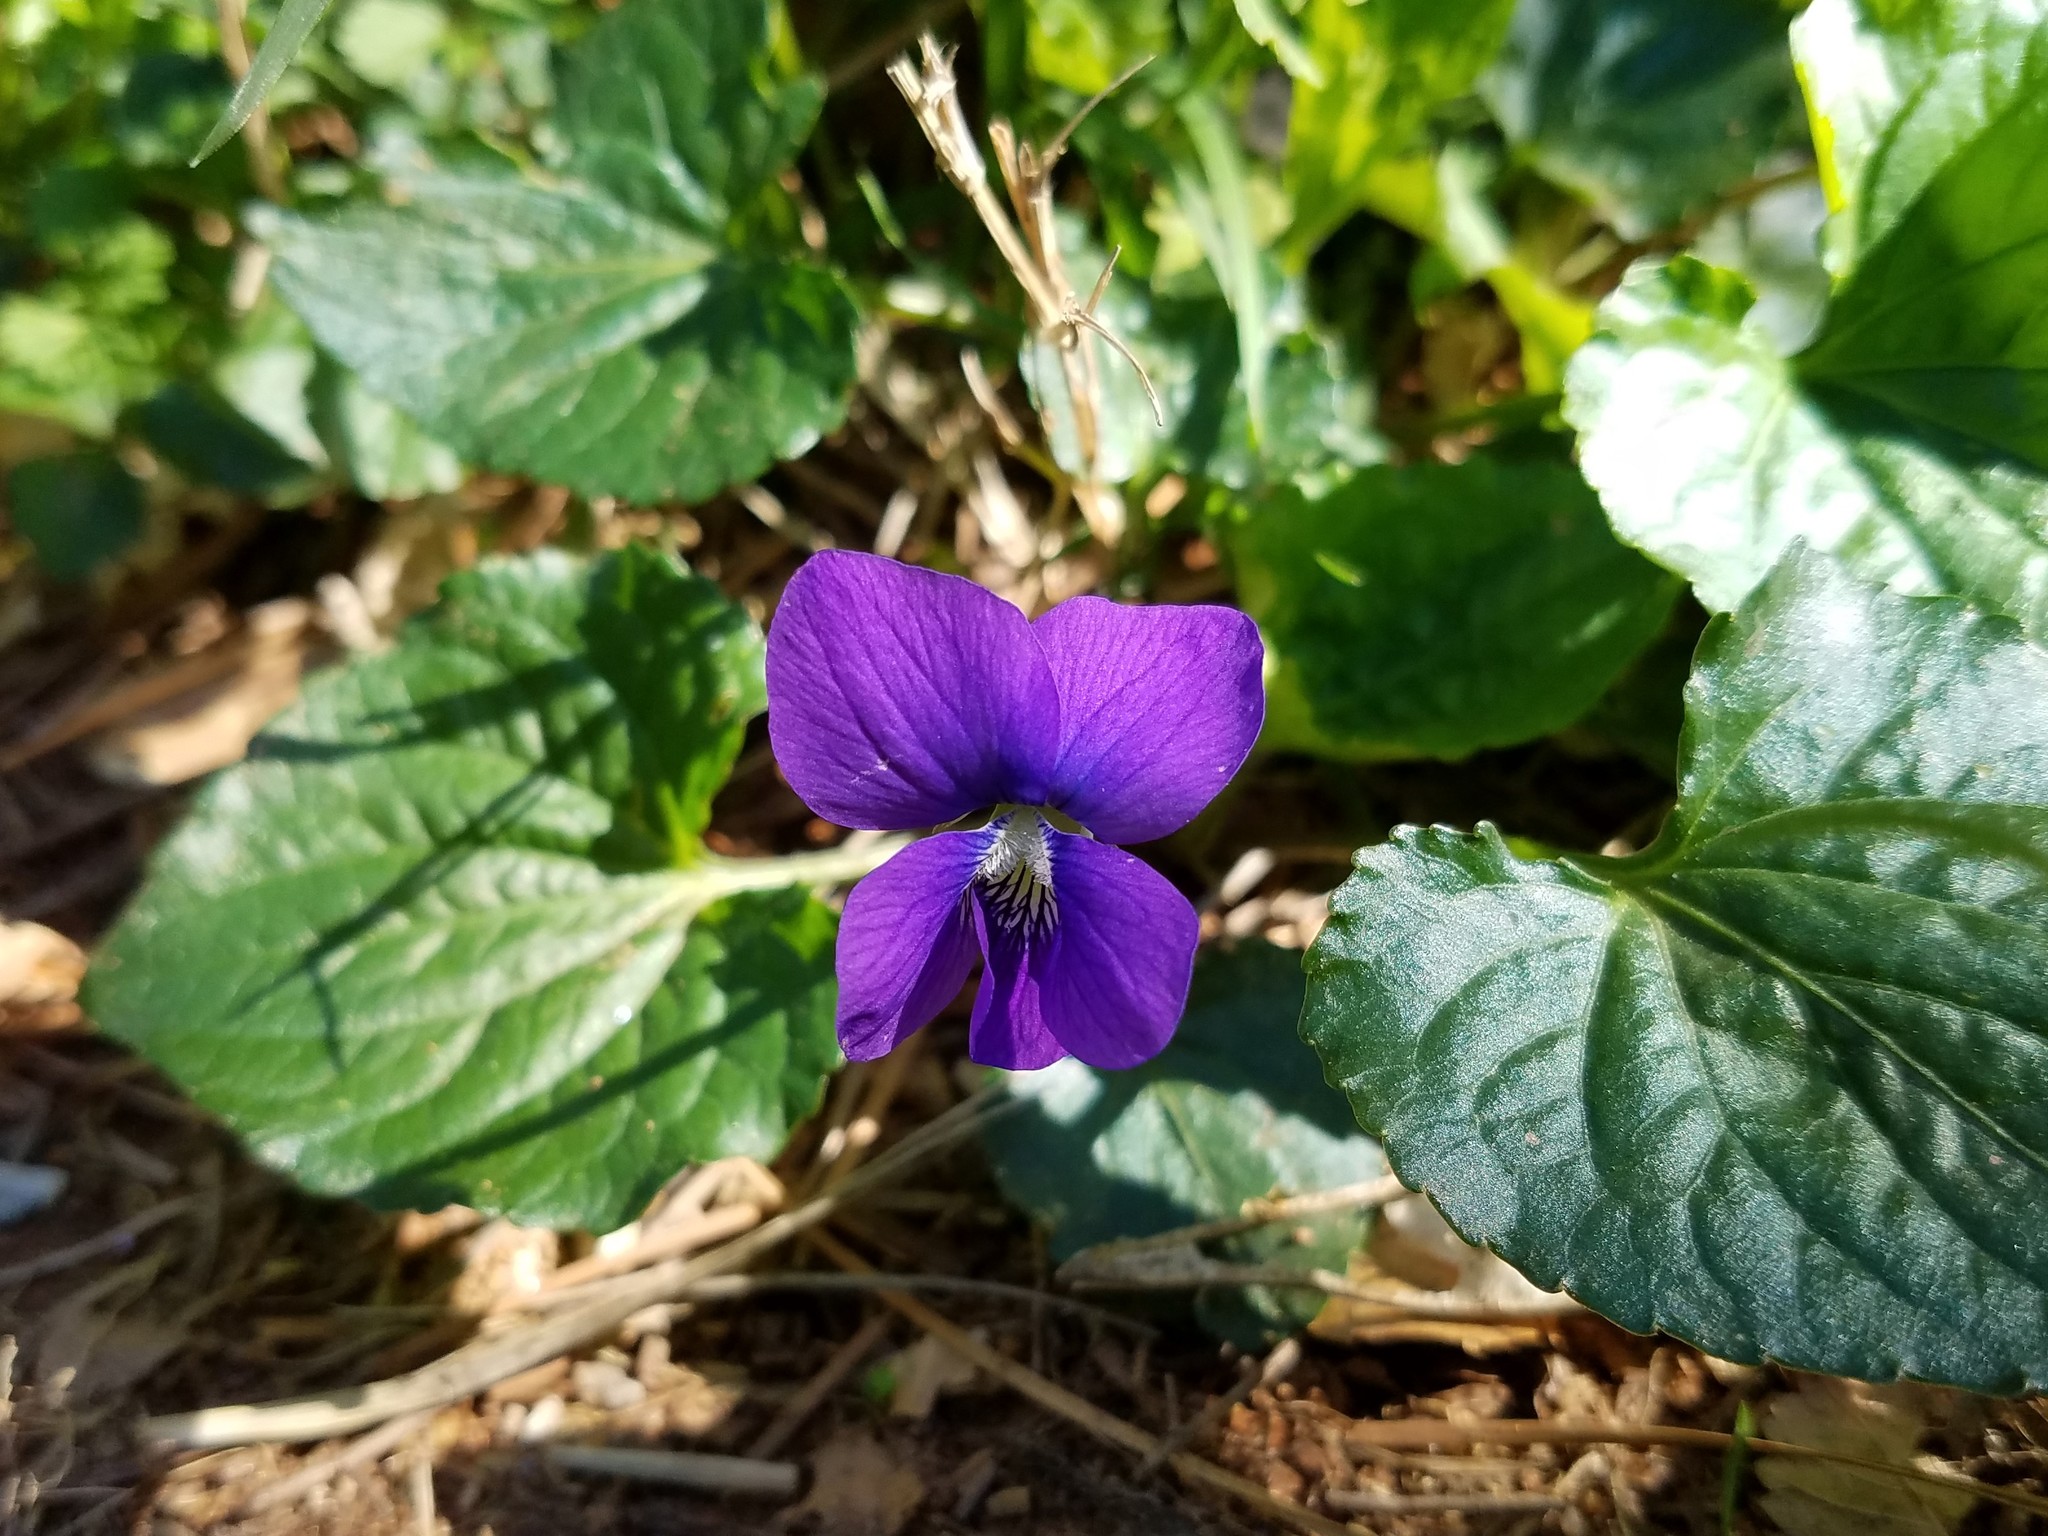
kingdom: Plantae
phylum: Tracheophyta
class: Magnoliopsida
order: Malpighiales
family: Violaceae
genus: Viola
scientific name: Viola sororia
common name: Dooryard violet
